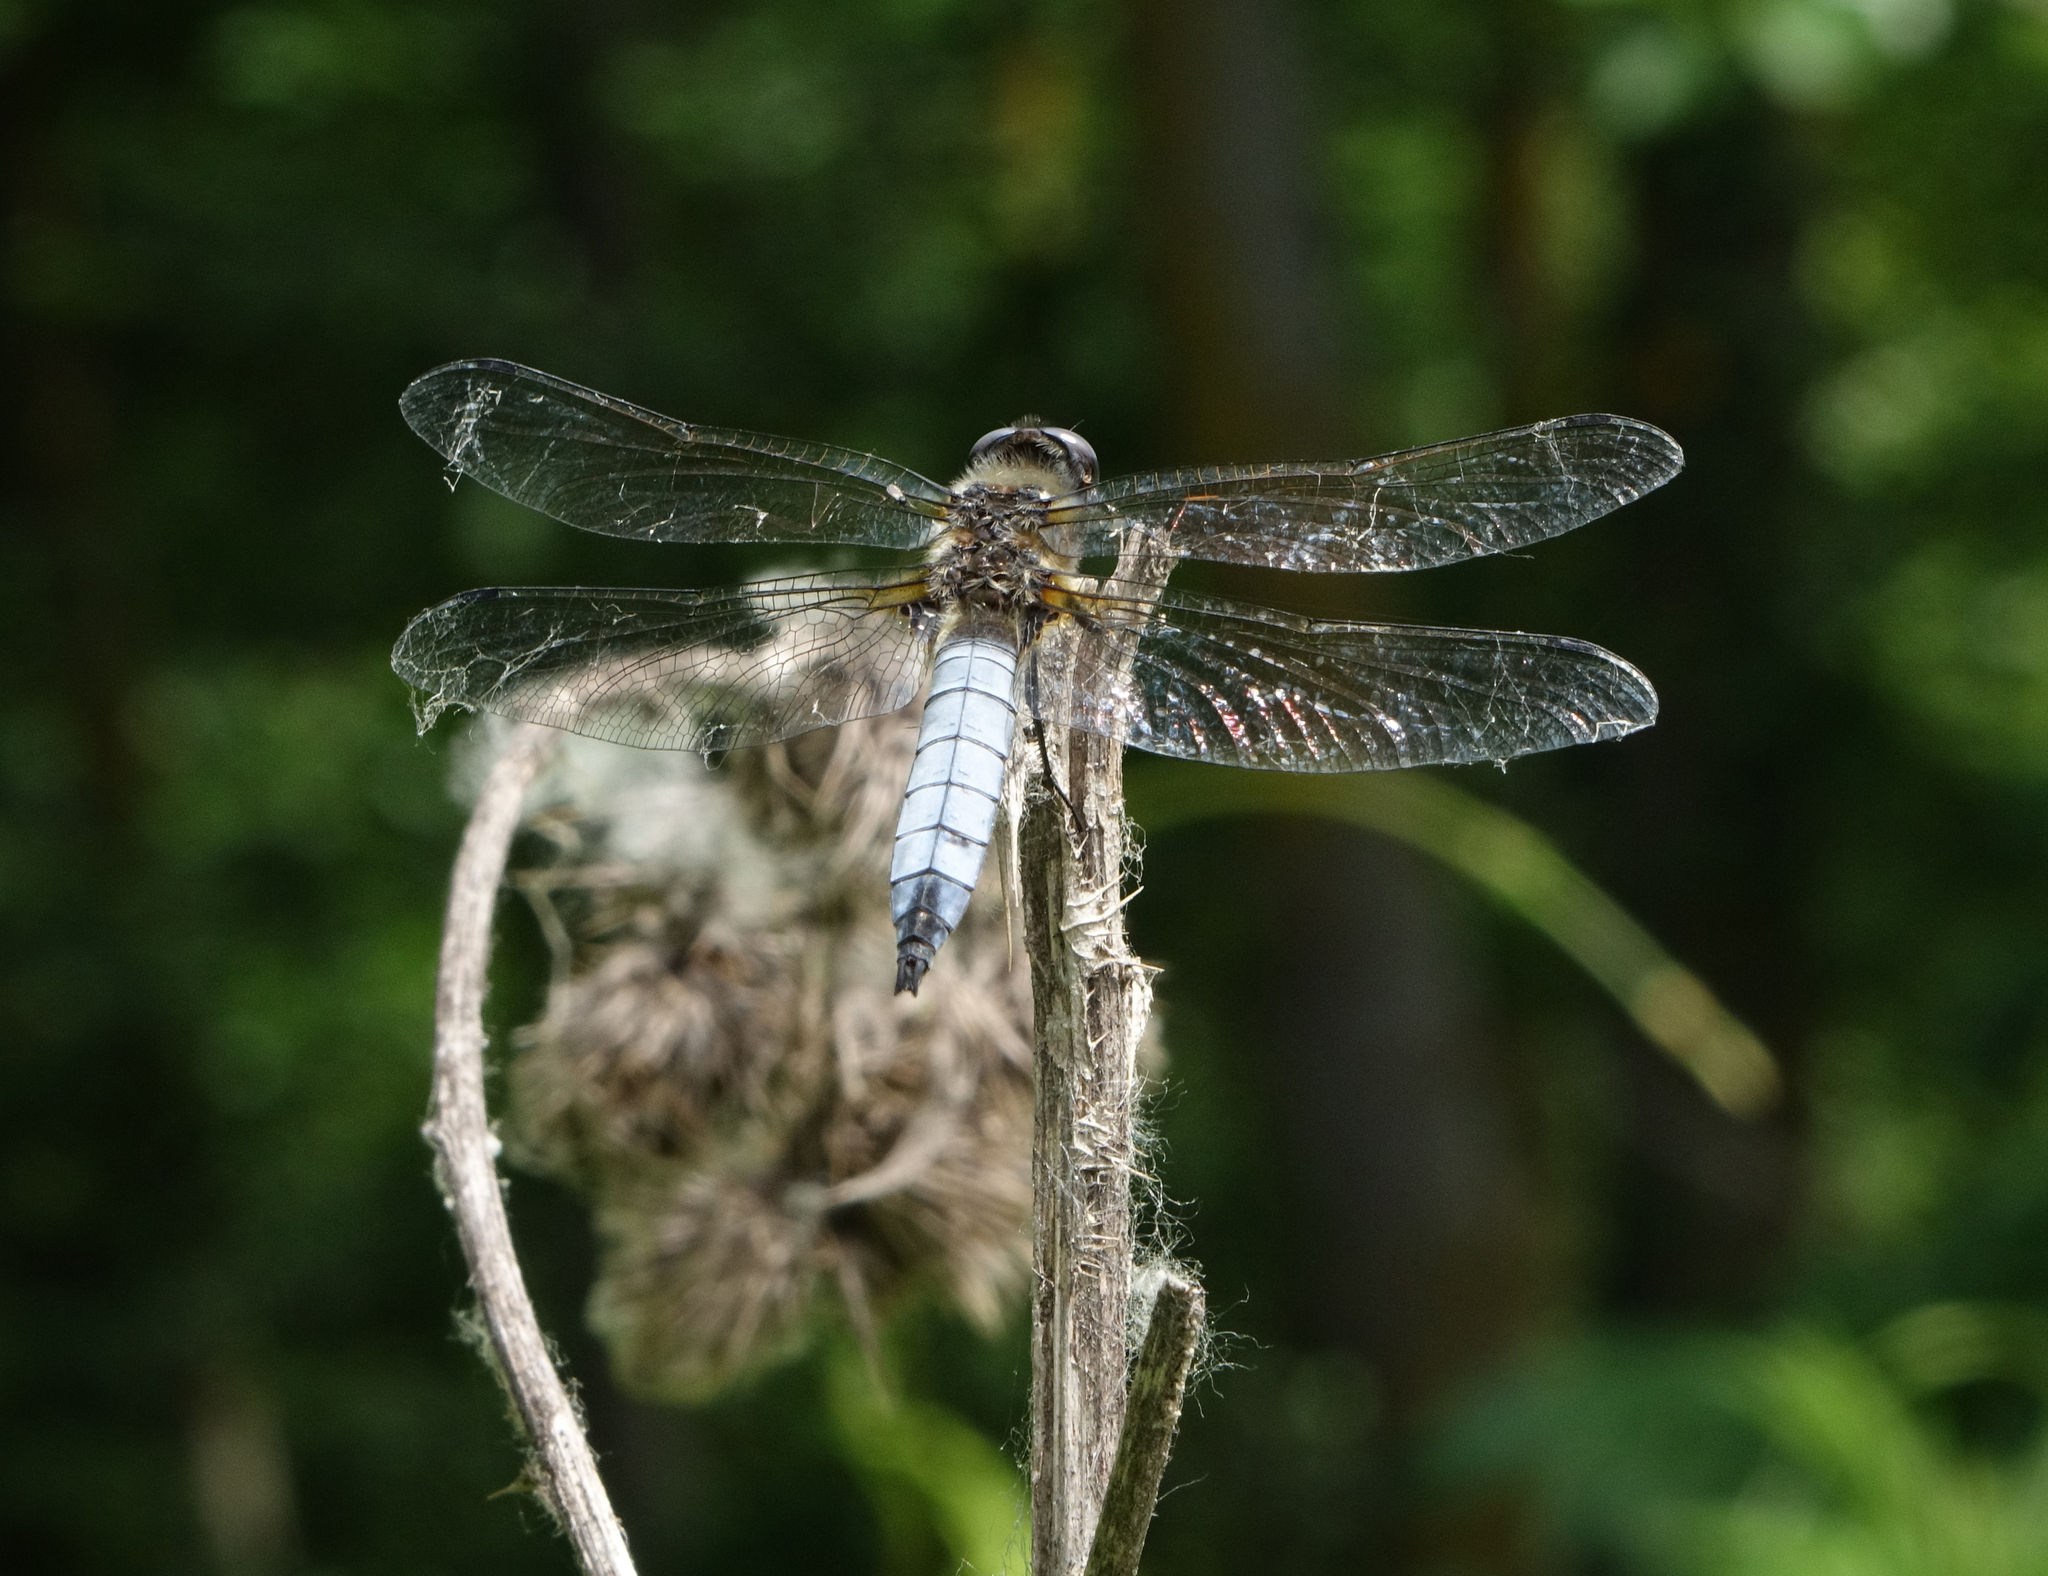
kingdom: Animalia
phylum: Arthropoda
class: Insecta
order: Odonata
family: Libellulidae
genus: Libellula
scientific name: Libellula fulva
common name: Blue chaser
